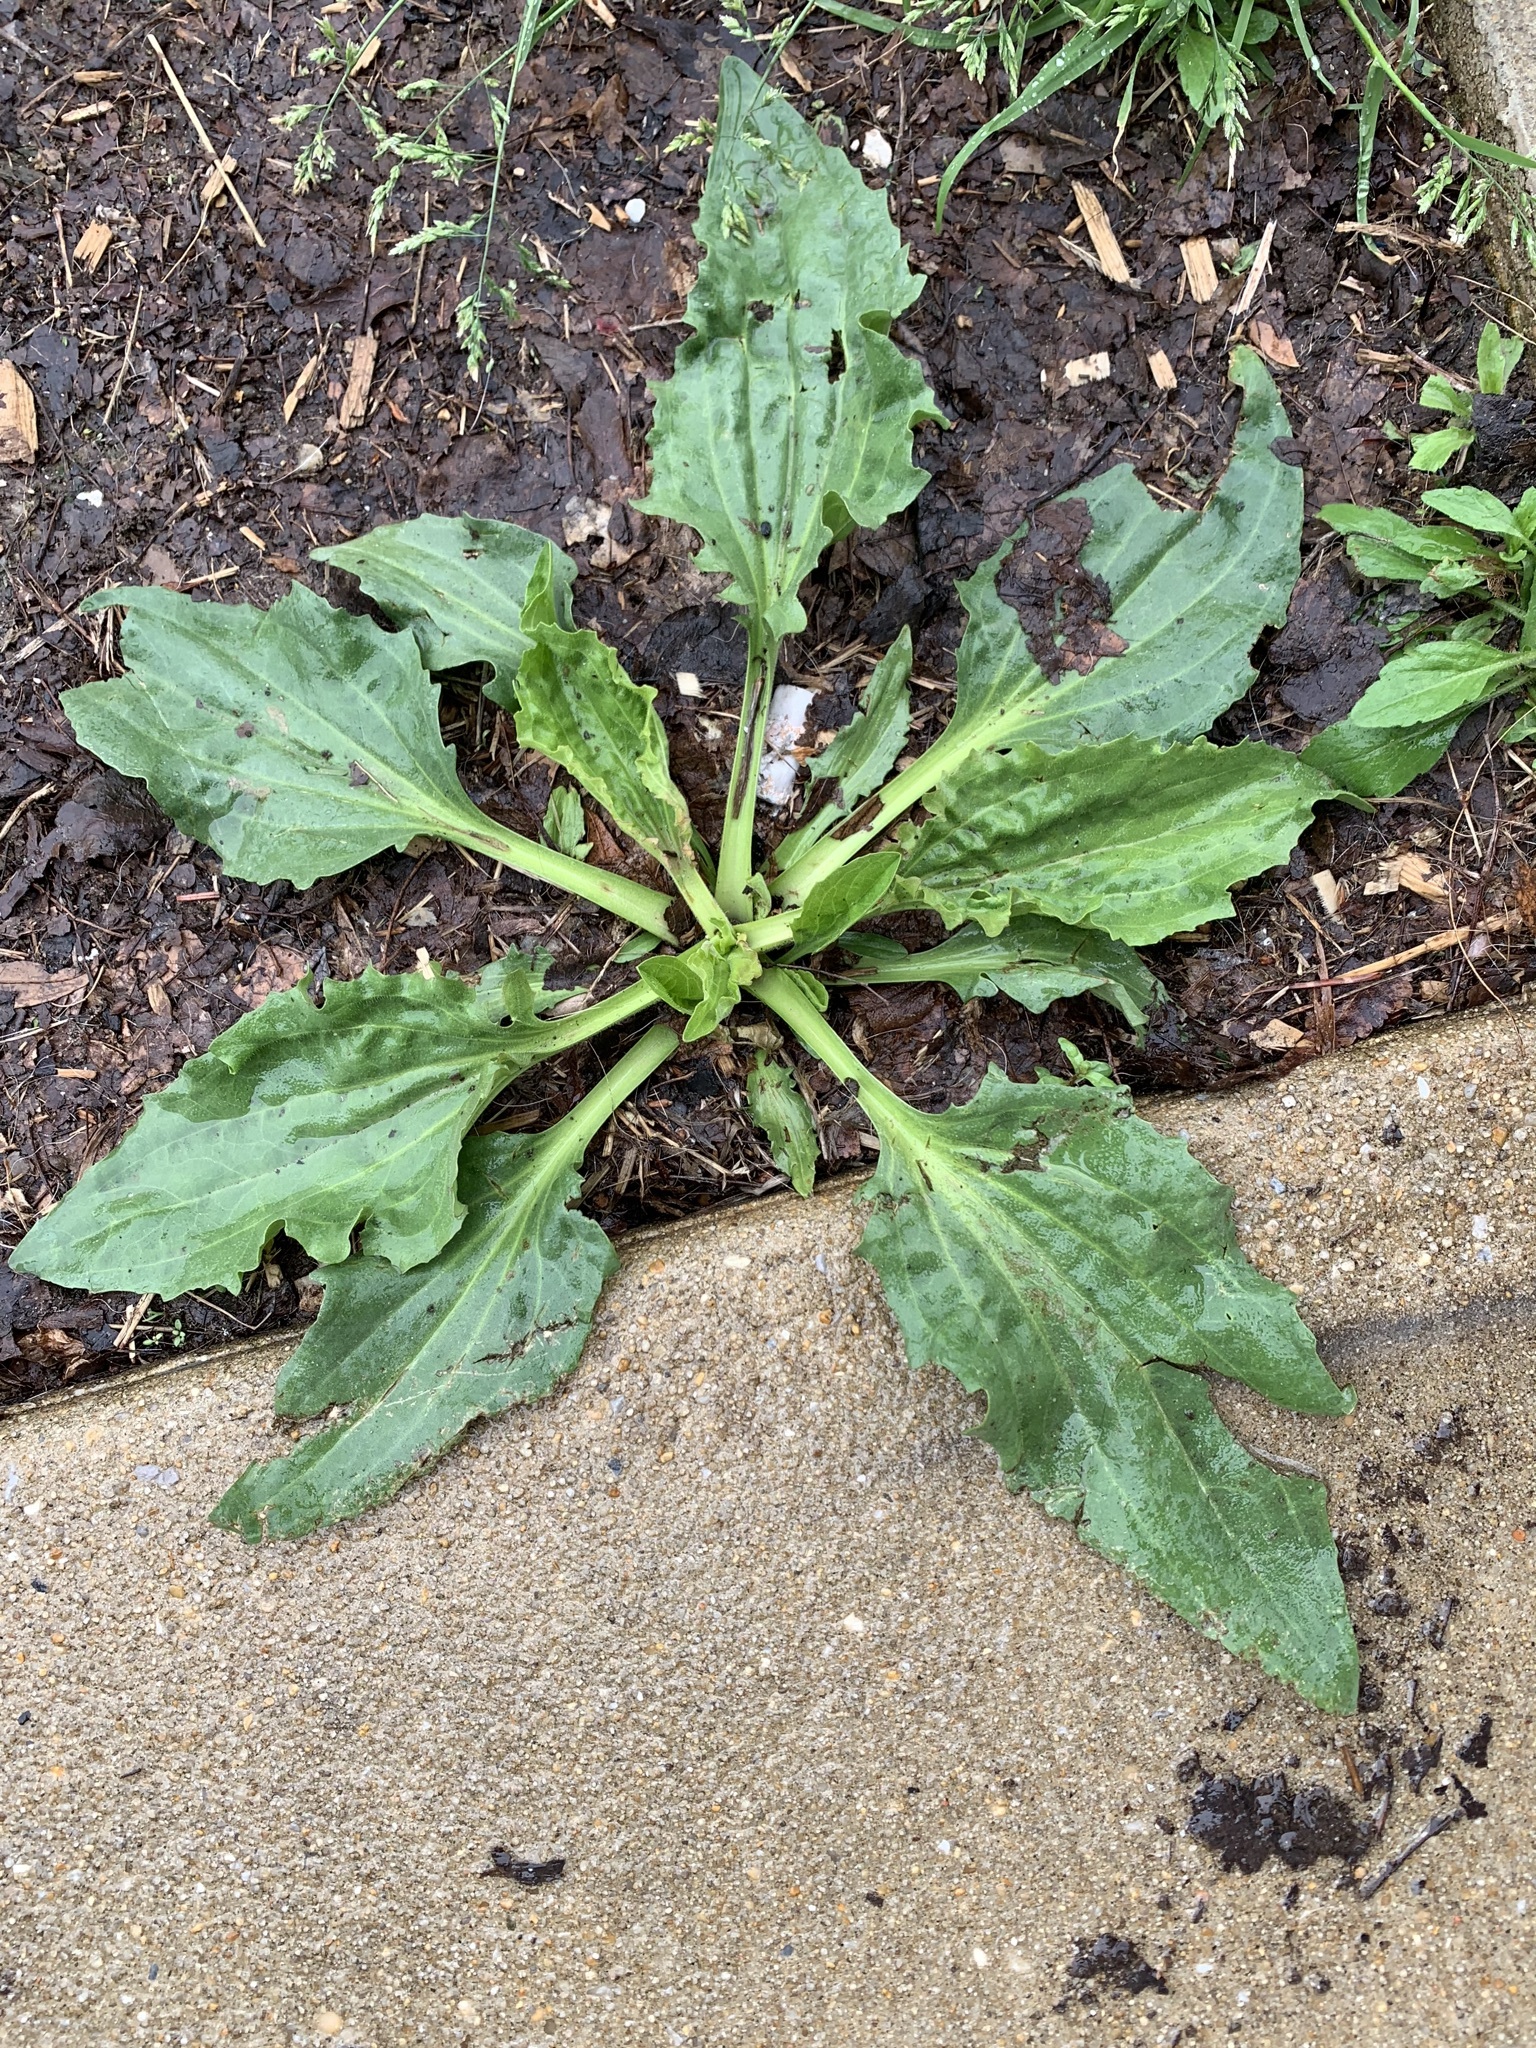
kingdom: Plantae
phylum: Tracheophyta
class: Magnoliopsida
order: Lamiales
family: Plantaginaceae
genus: Plantago
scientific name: Plantago major
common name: Common plantain
